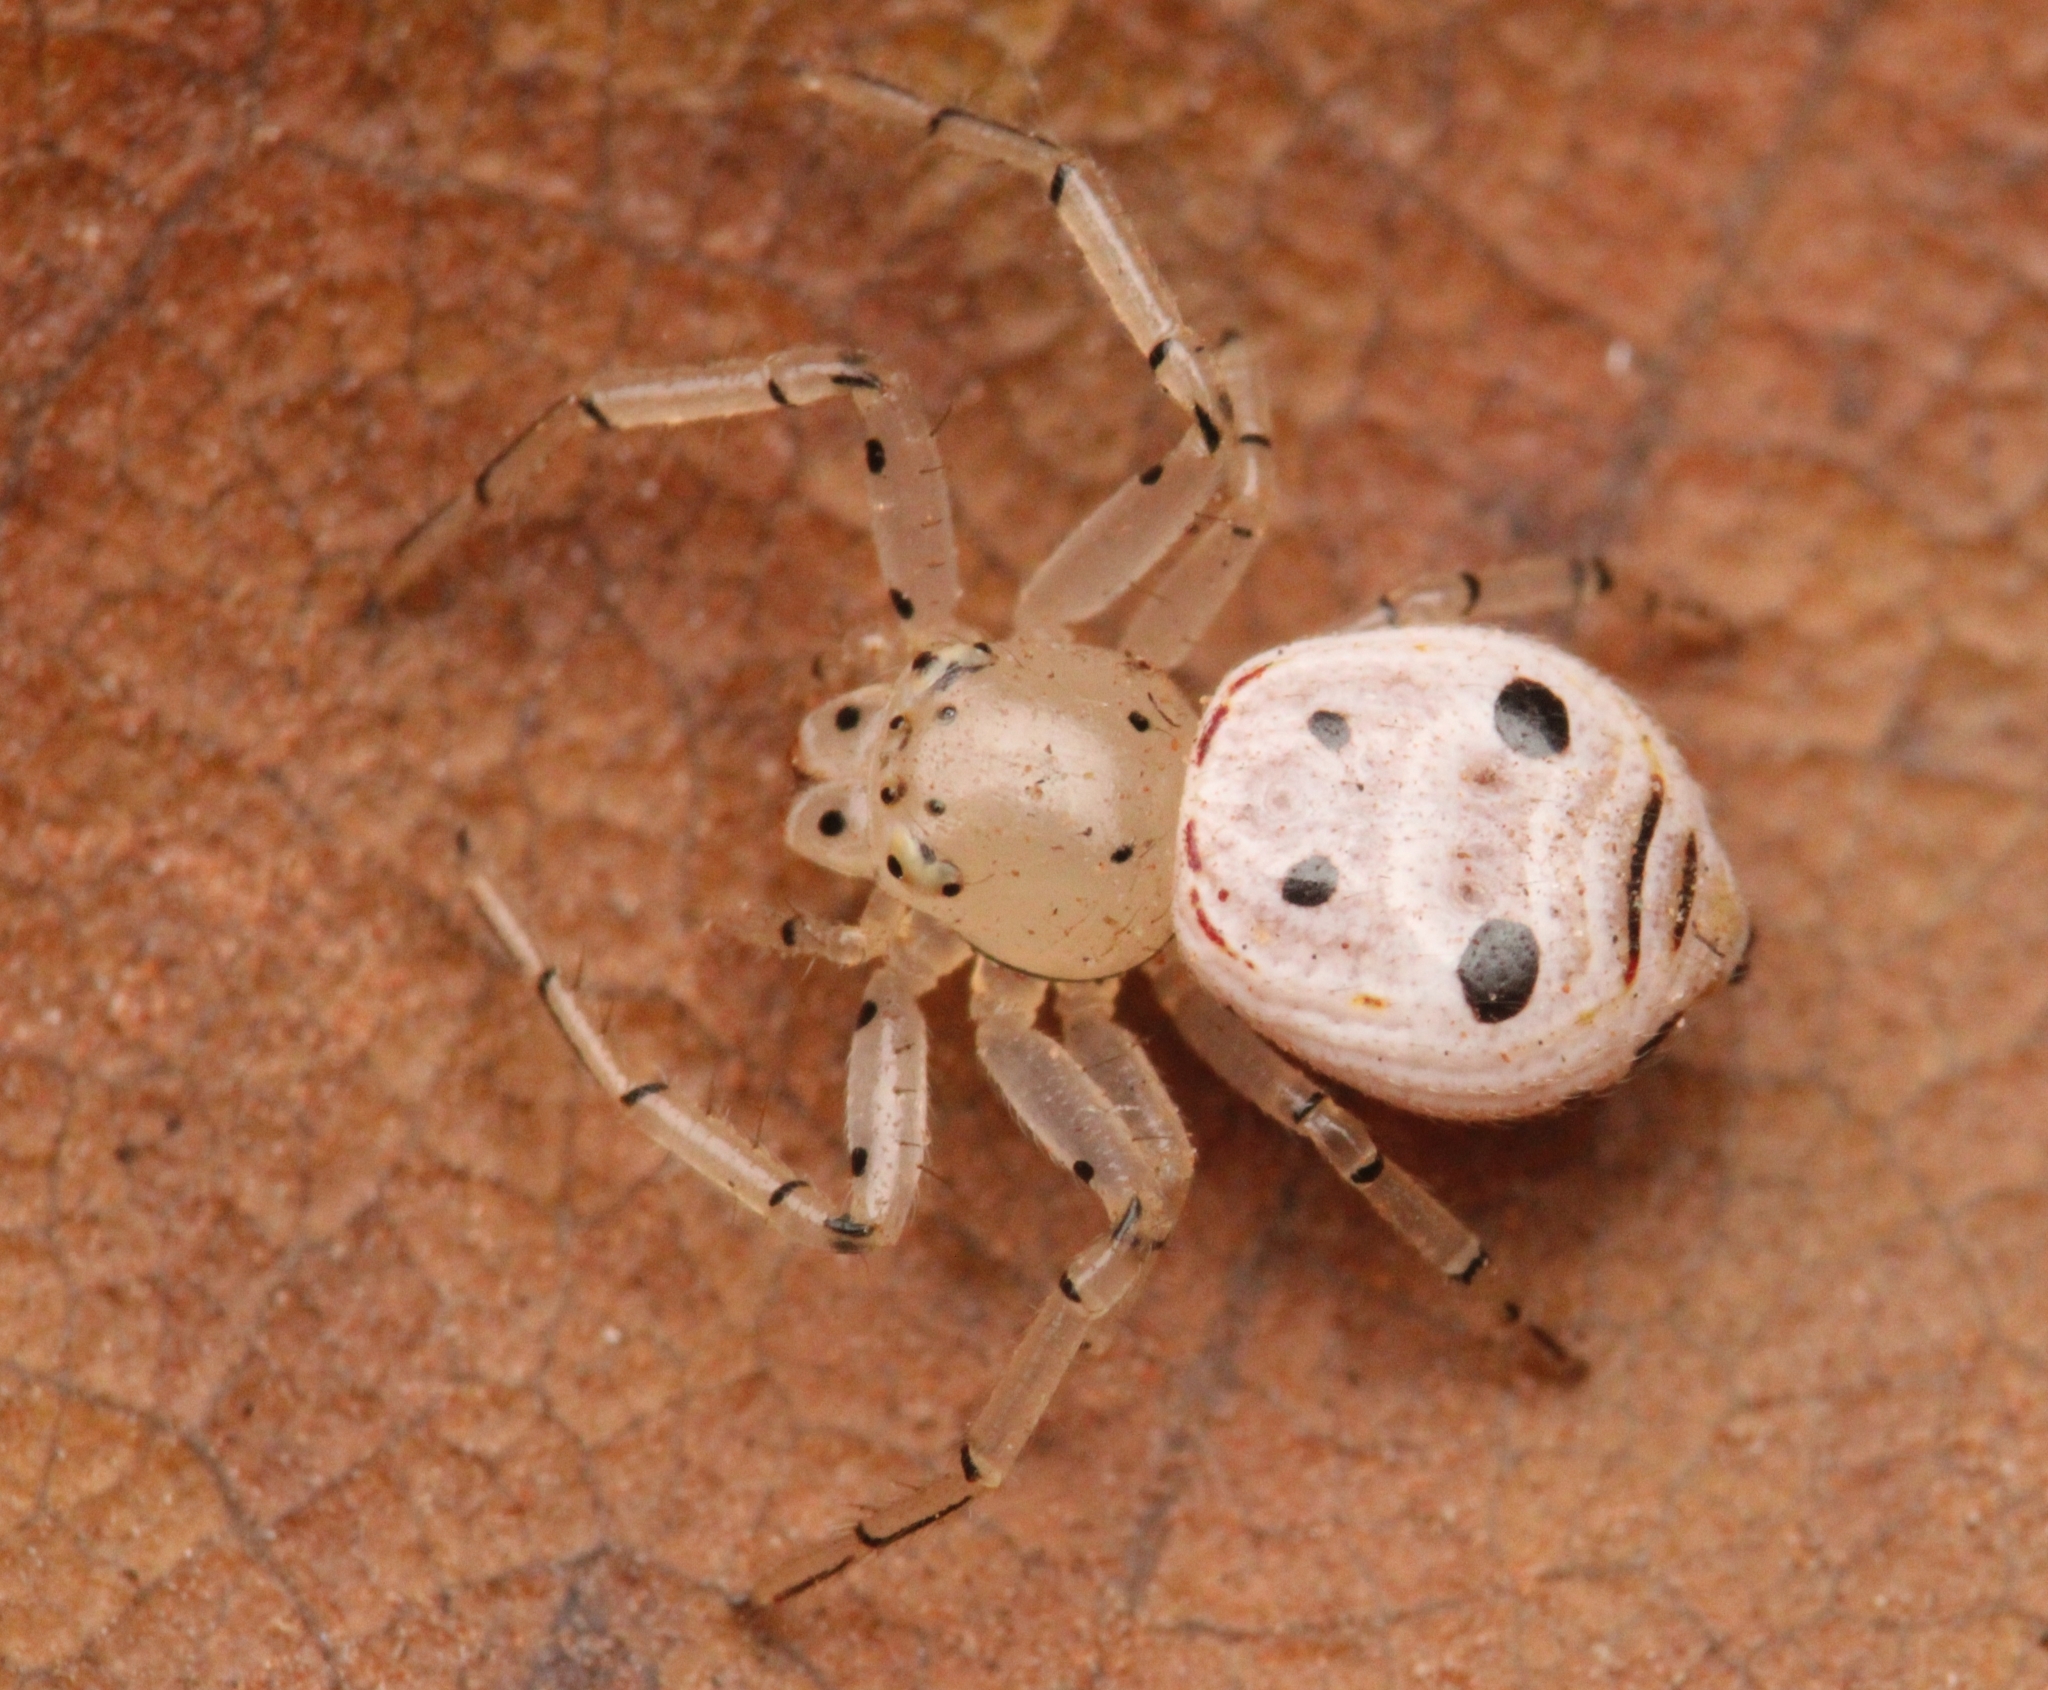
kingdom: Animalia
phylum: Arthropoda
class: Arachnida
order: Araneae
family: Thomisidae
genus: Firmicus
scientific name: Firmicus bragantinus
